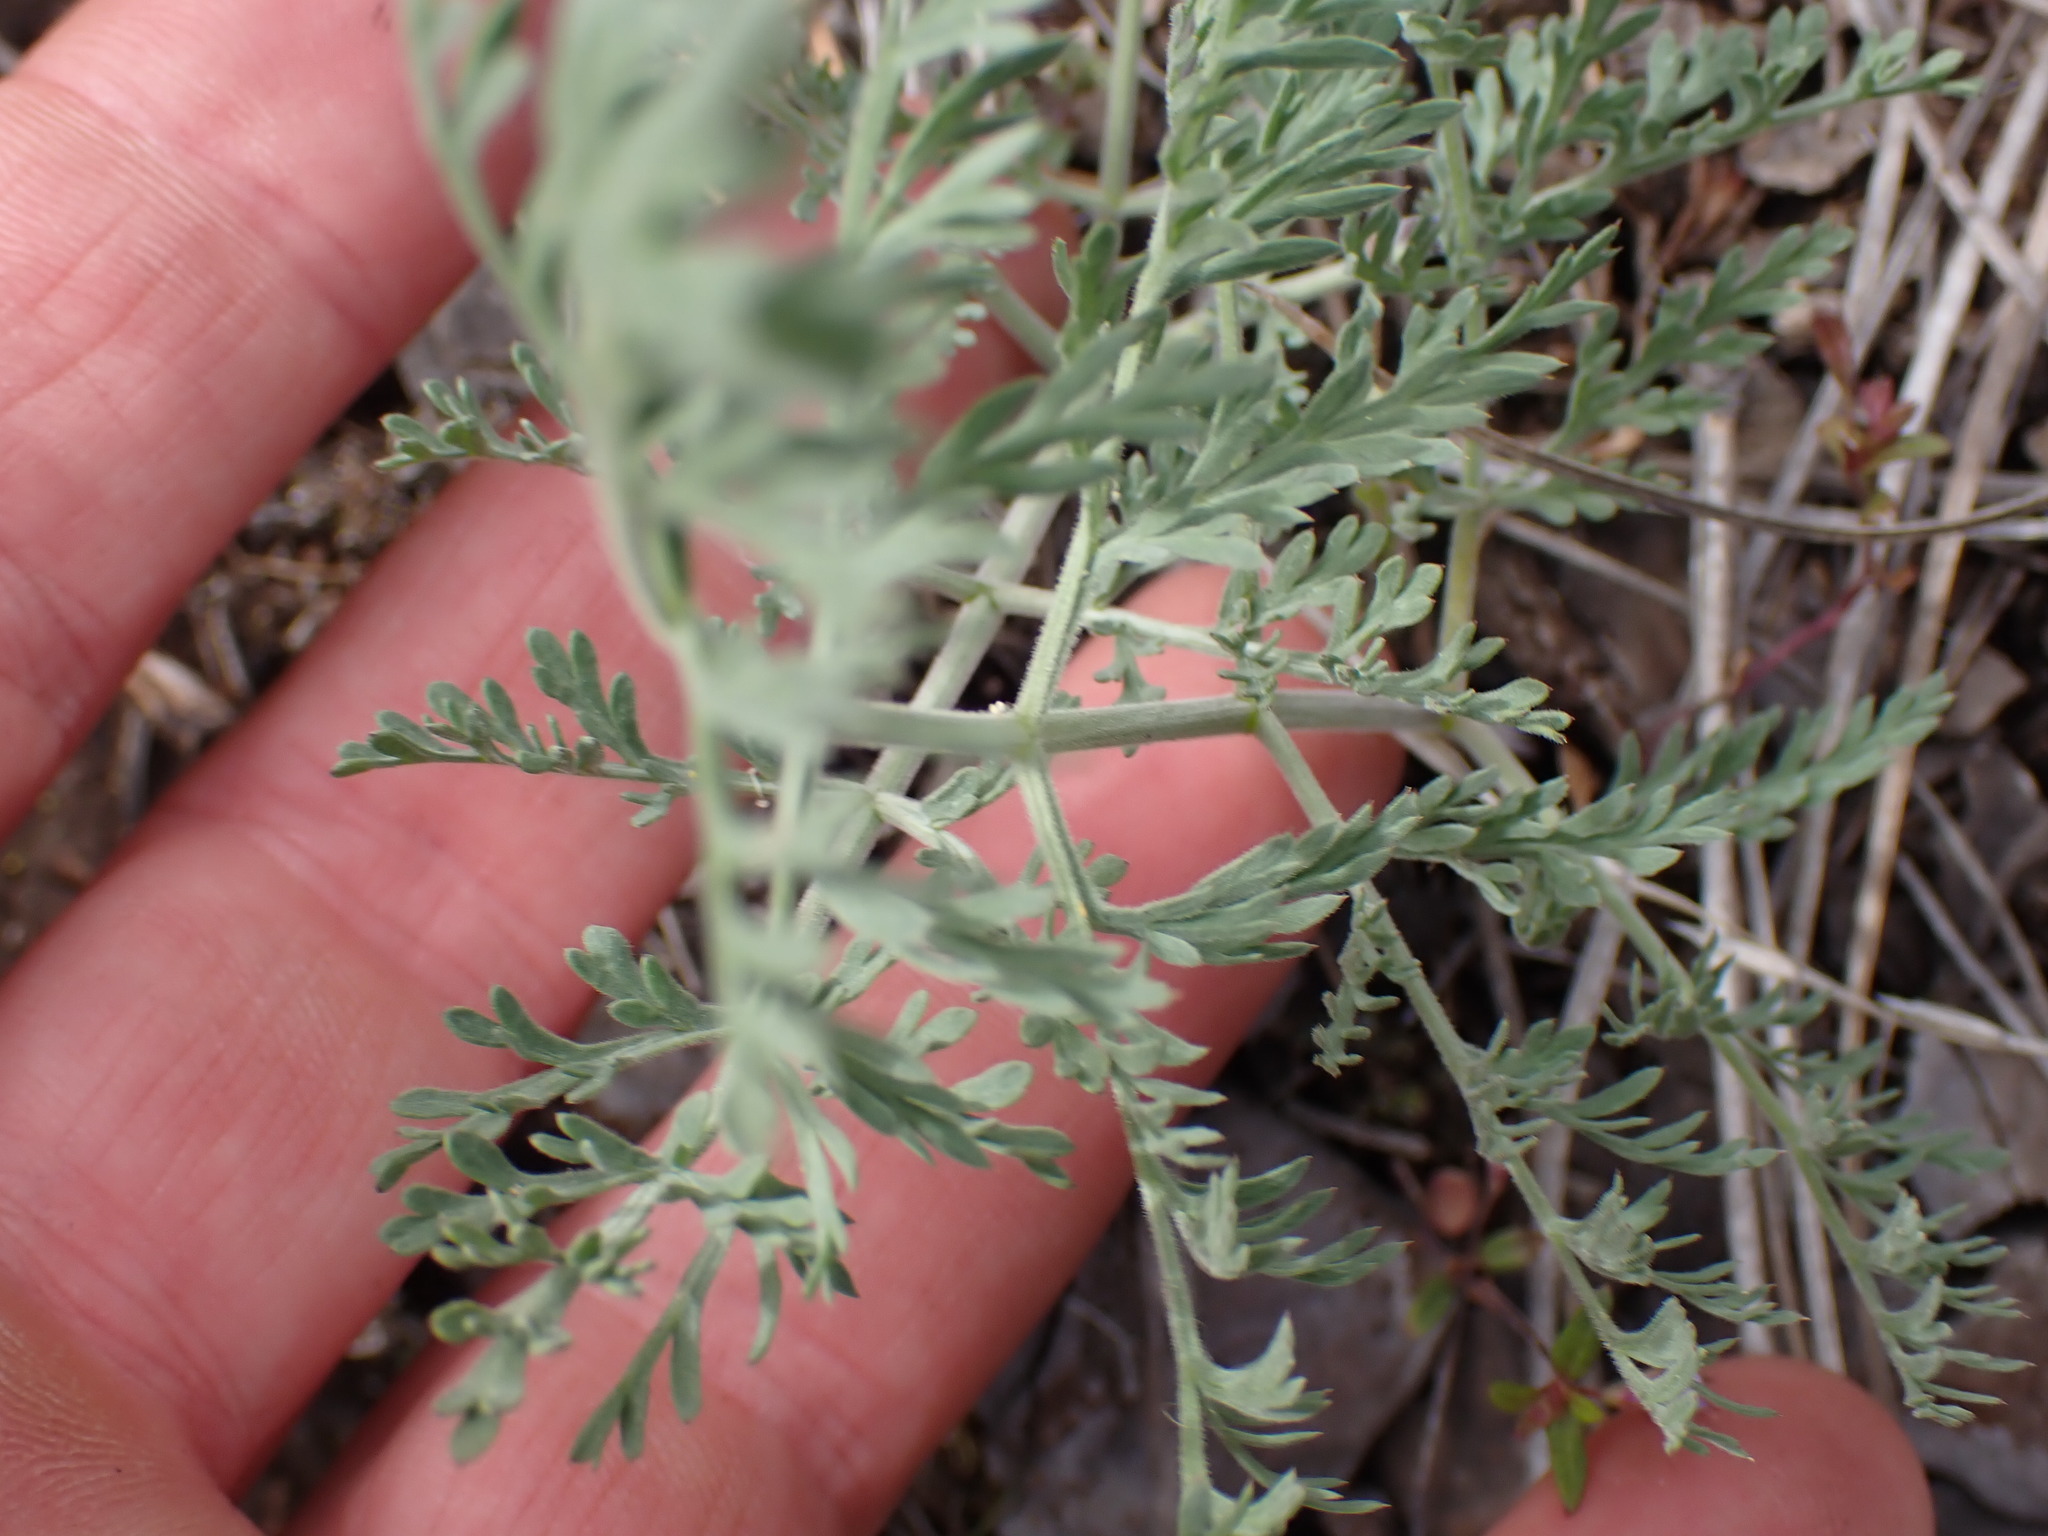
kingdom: Plantae
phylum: Tracheophyta
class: Magnoliopsida
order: Apiales
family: Apiaceae
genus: Lomatium
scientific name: Lomatium macrocarpum
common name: Big-seed biscuitroot
